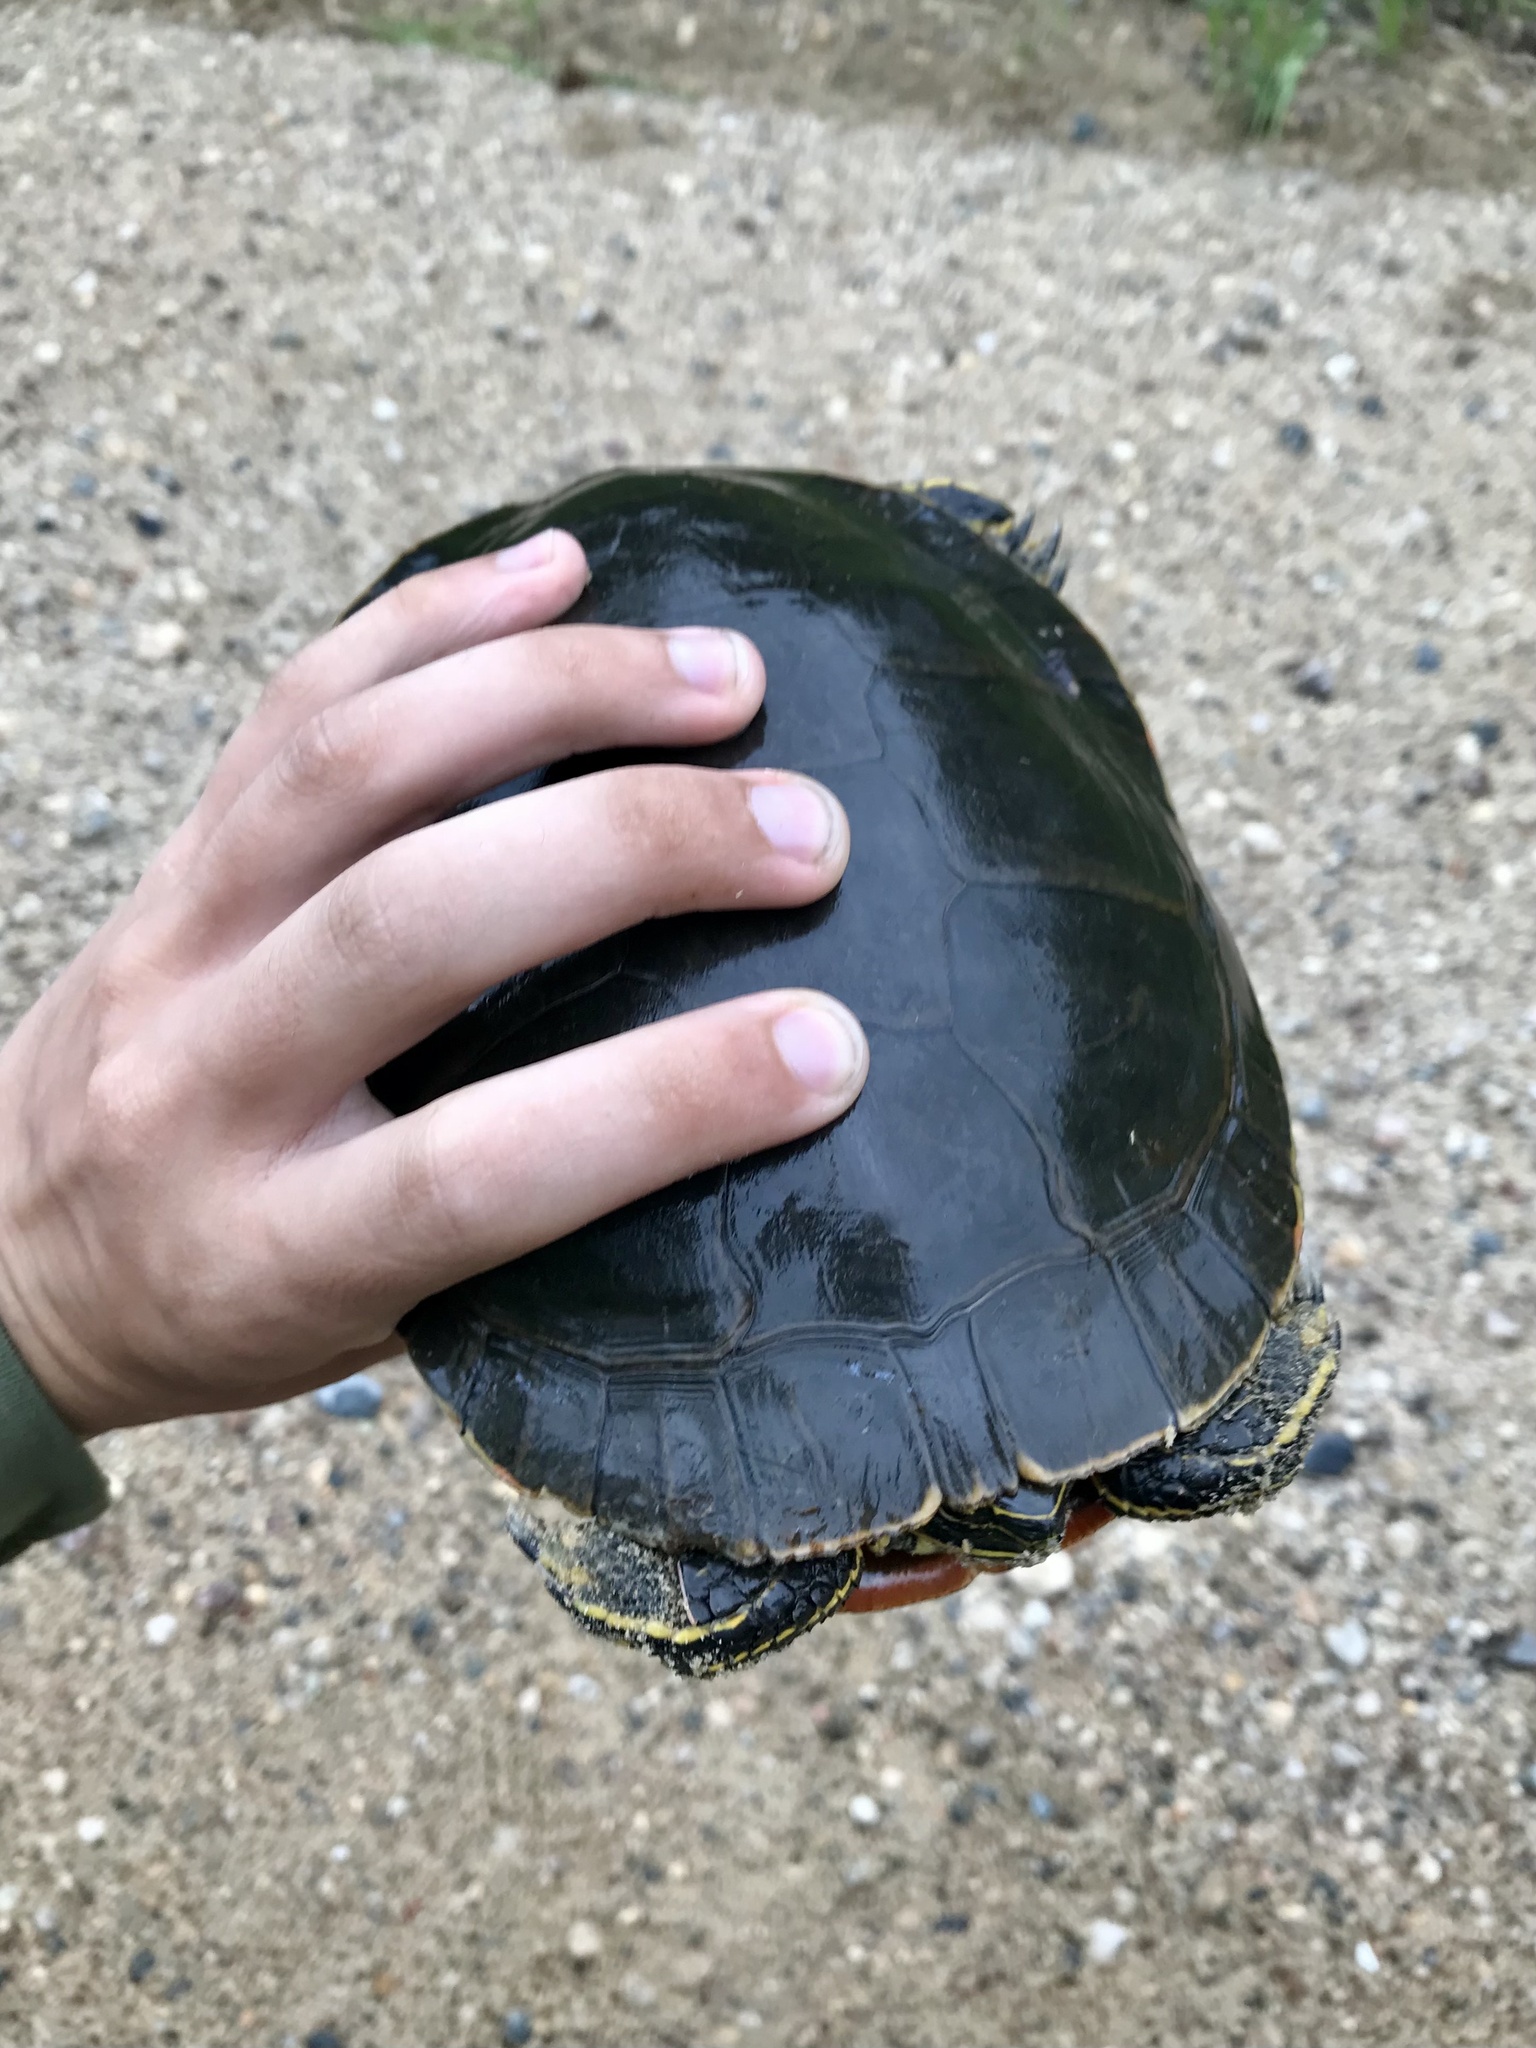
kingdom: Animalia
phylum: Chordata
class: Testudines
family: Emydidae
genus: Chrysemys
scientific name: Chrysemys picta
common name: Painted turtle
